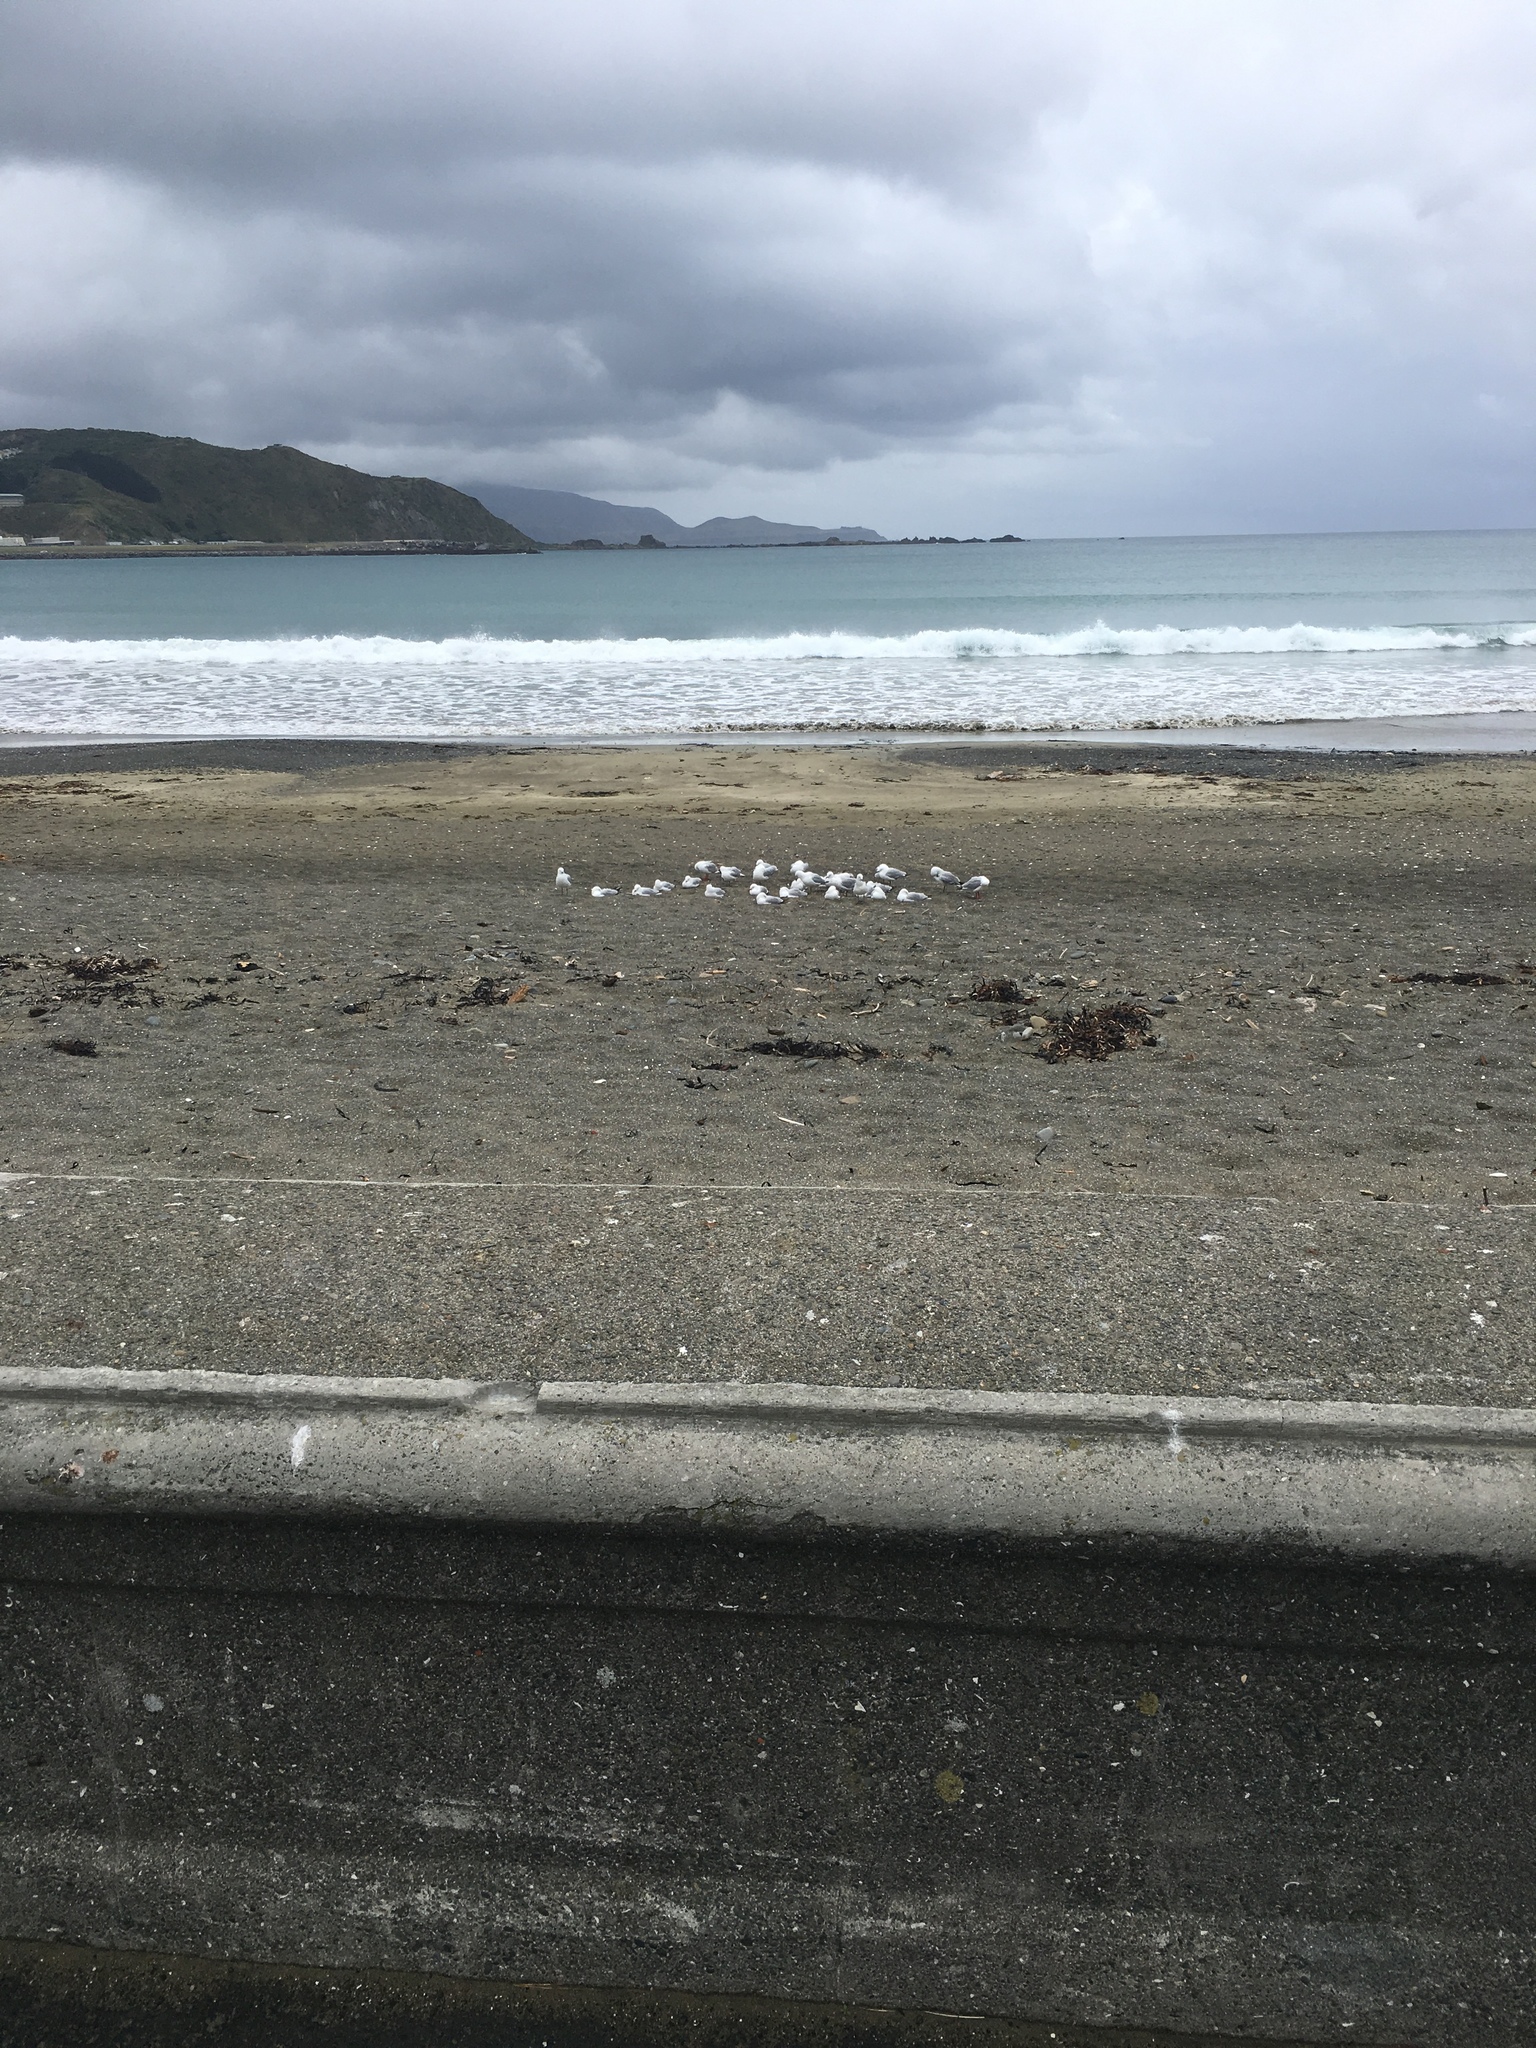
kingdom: Animalia
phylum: Chordata
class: Aves
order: Charadriiformes
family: Laridae
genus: Chroicocephalus
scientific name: Chroicocephalus novaehollandiae
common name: Silver gull
